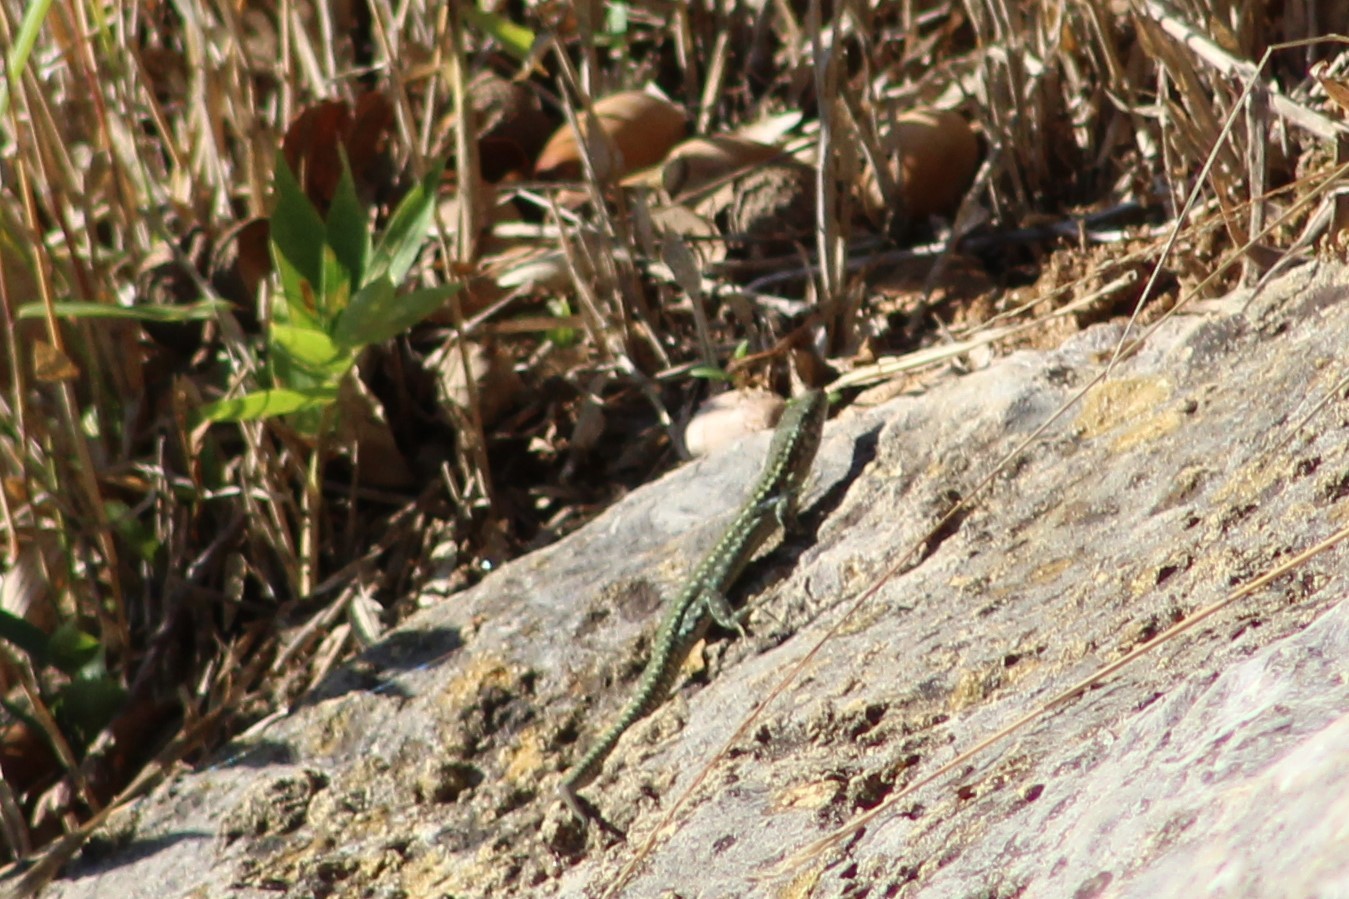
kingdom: Animalia
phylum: Chordata
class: Squamata
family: Lacertidae
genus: Podarcis
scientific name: Podarcis virescens
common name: Geniez’s wall lizard
